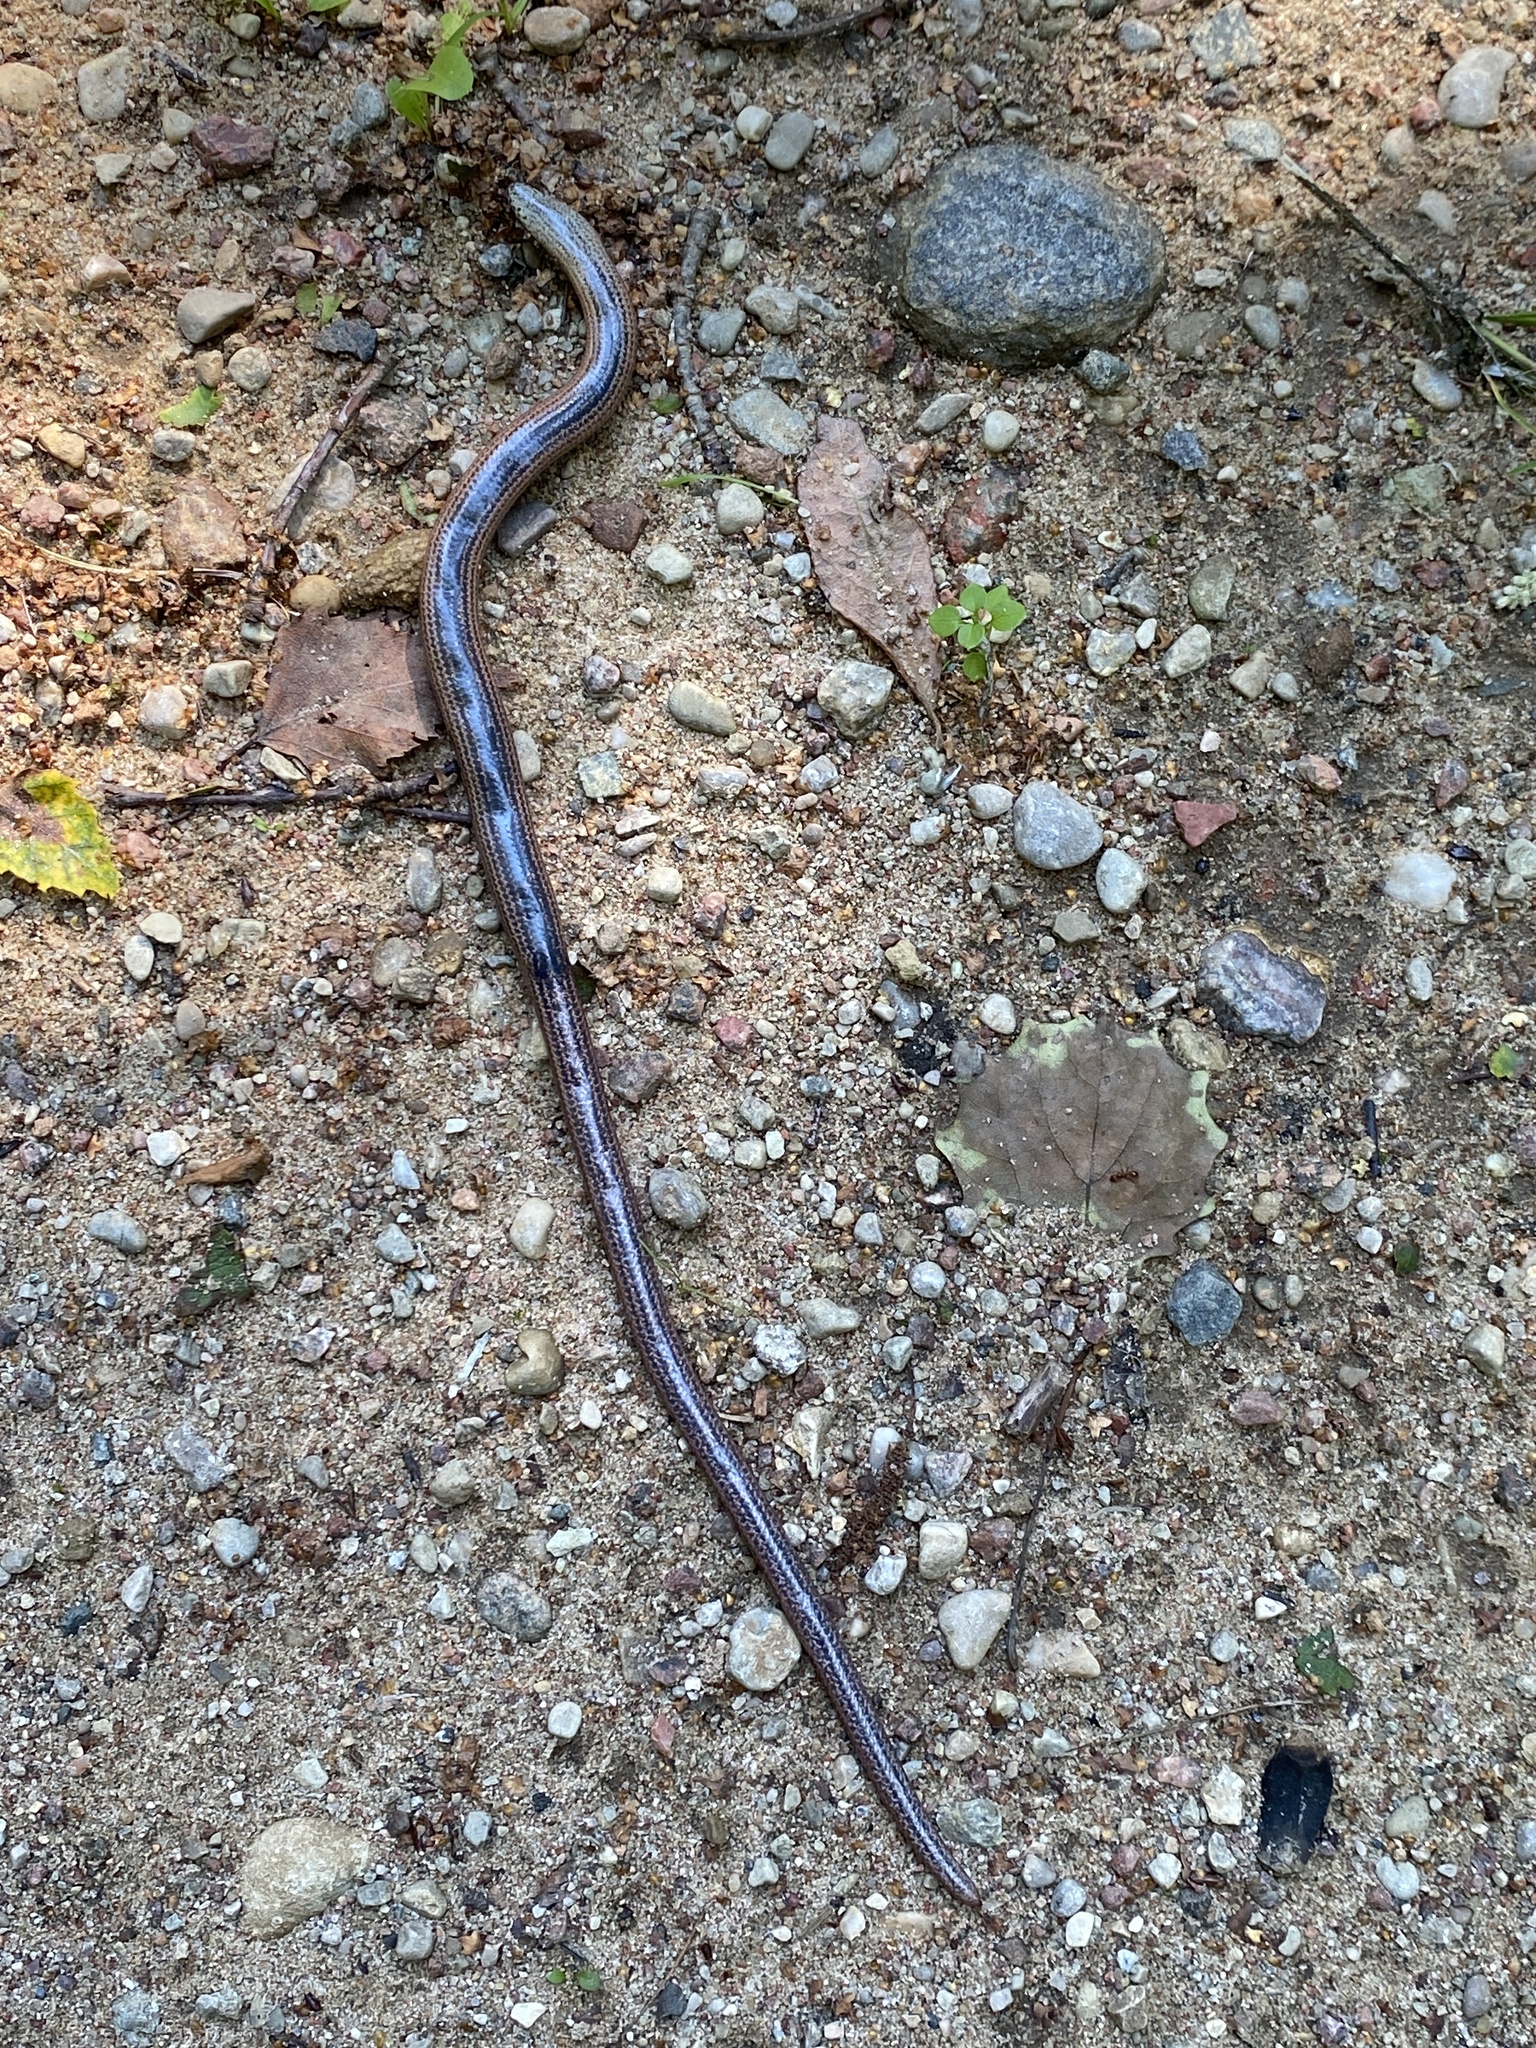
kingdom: Animalia
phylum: Chordata
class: Squamata
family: Anguidae
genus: Anguis
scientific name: Anguis fragilis
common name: Slow worm
